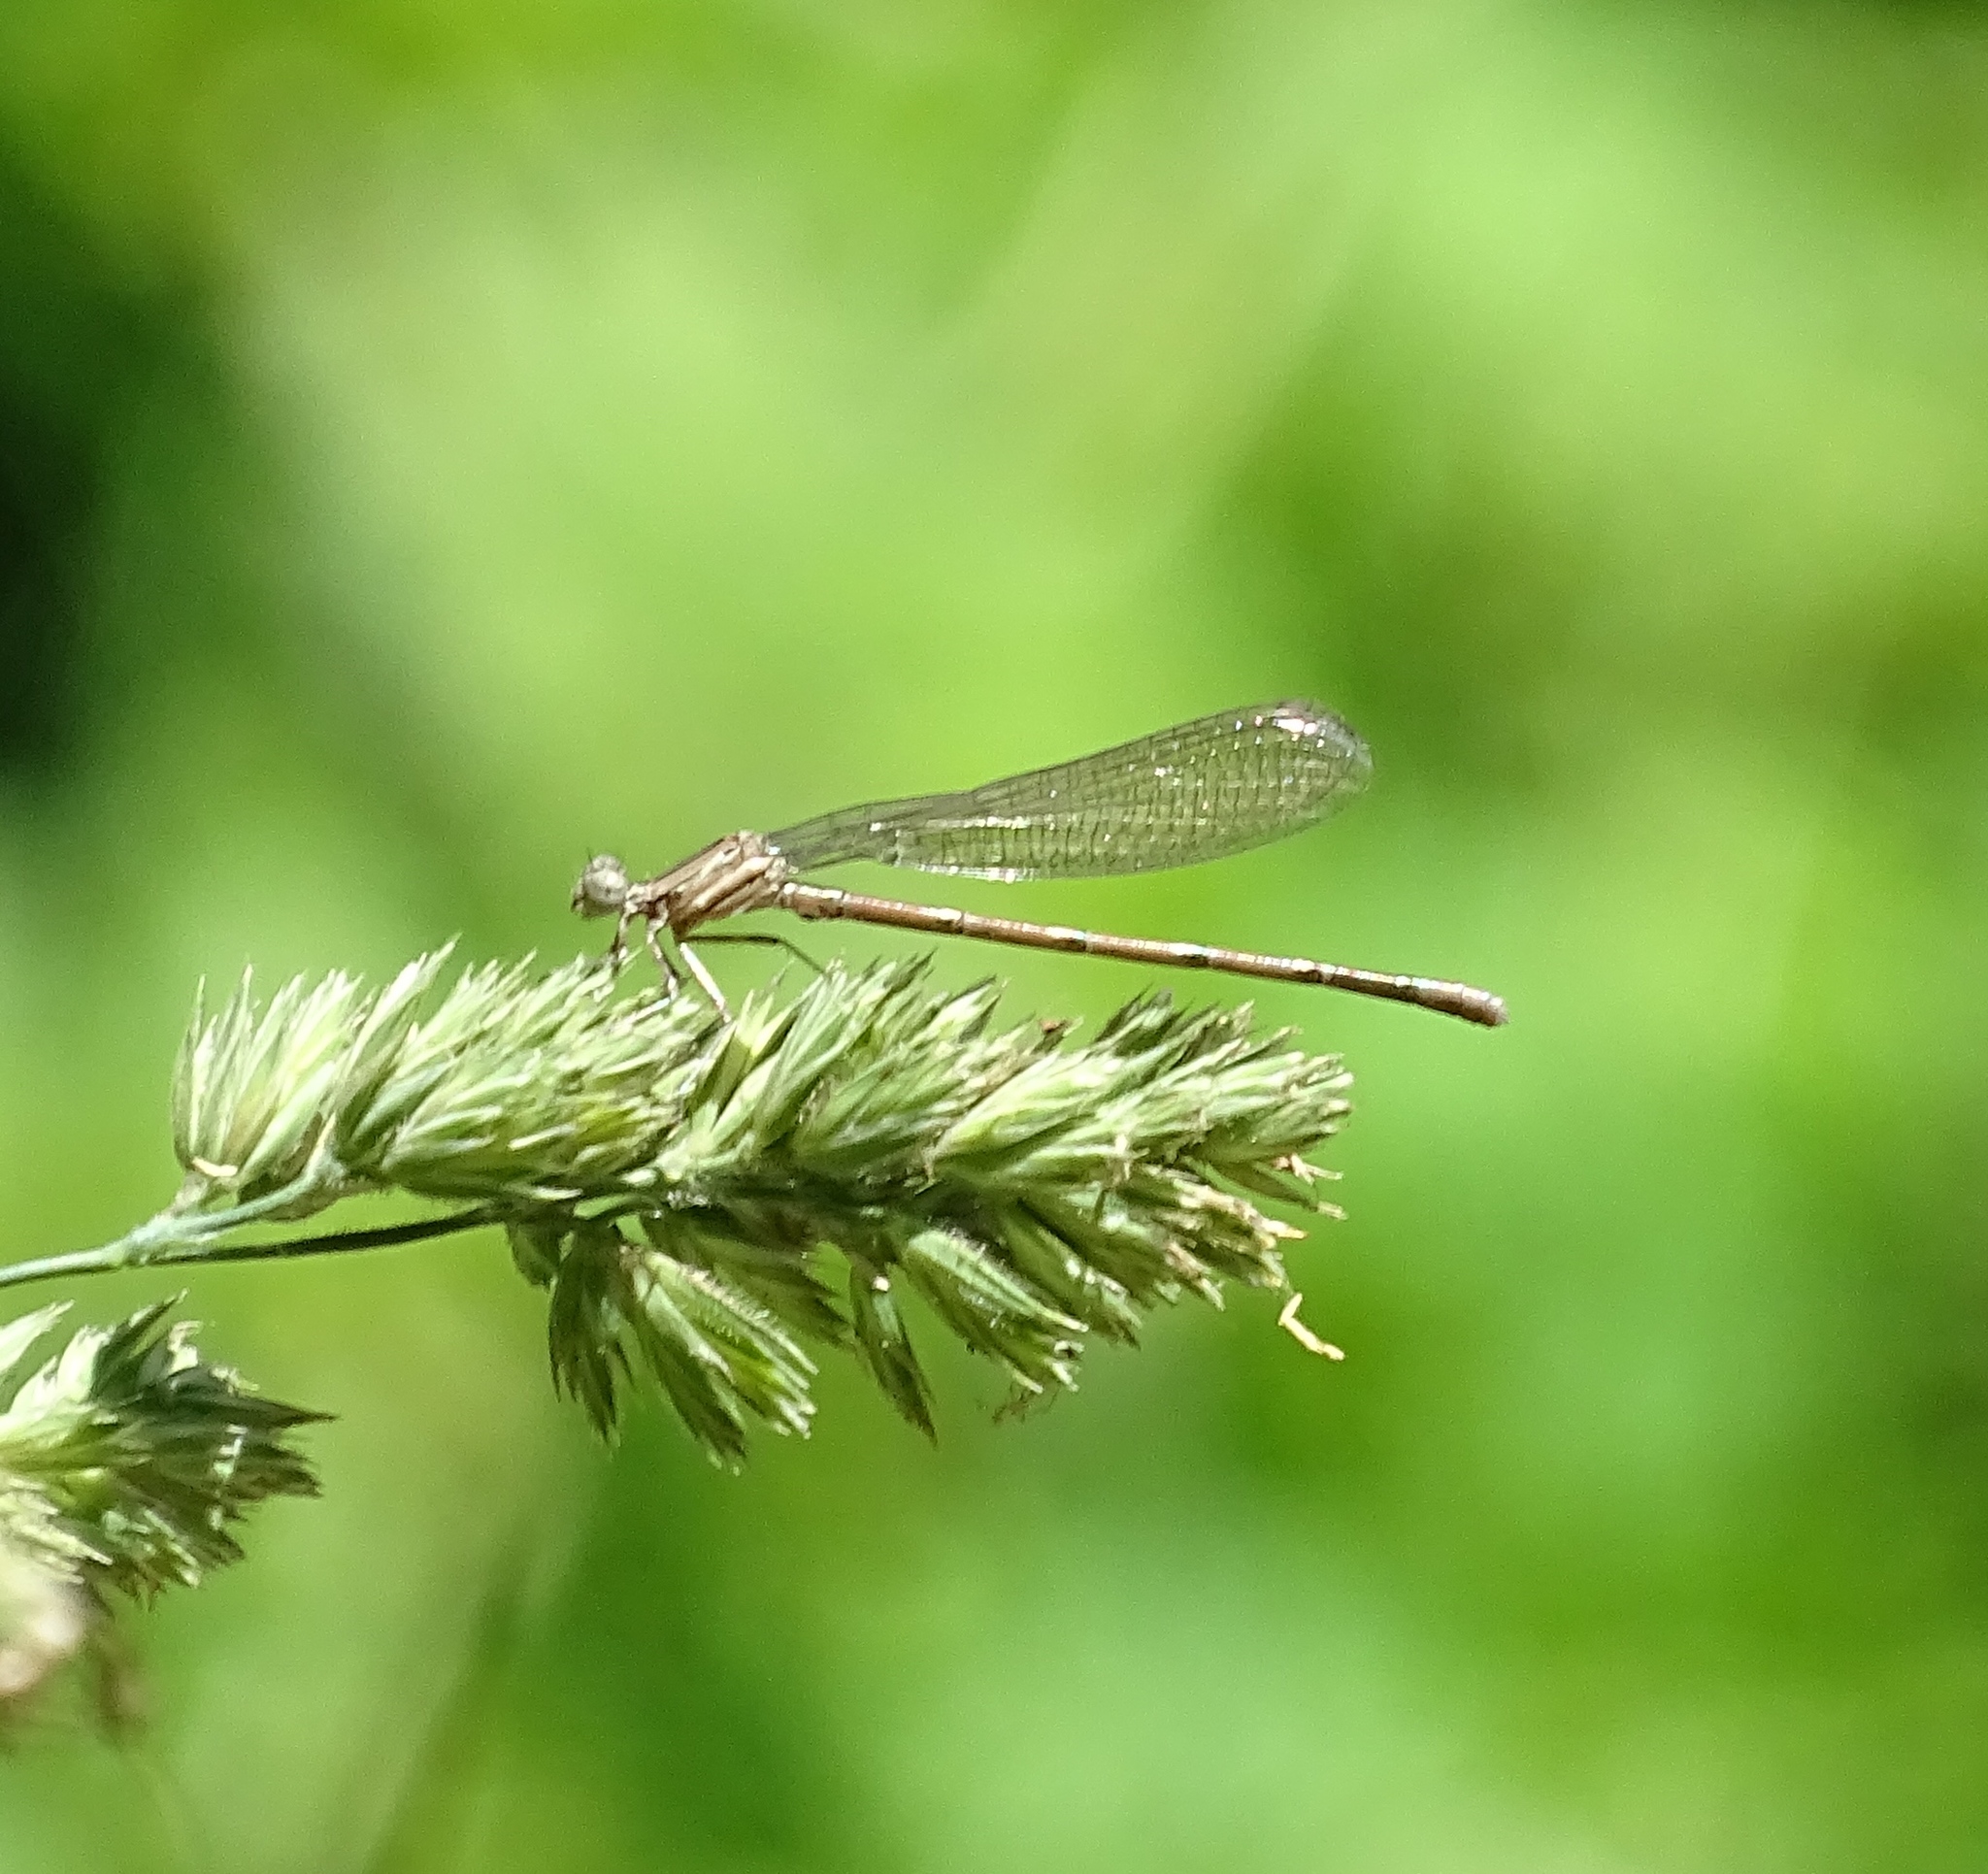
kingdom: Animalia
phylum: Arthropoda
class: Insecta
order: Odonata
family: Coenagrionidae
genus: Argia
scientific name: Argia fumipennis
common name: Variable dancer
